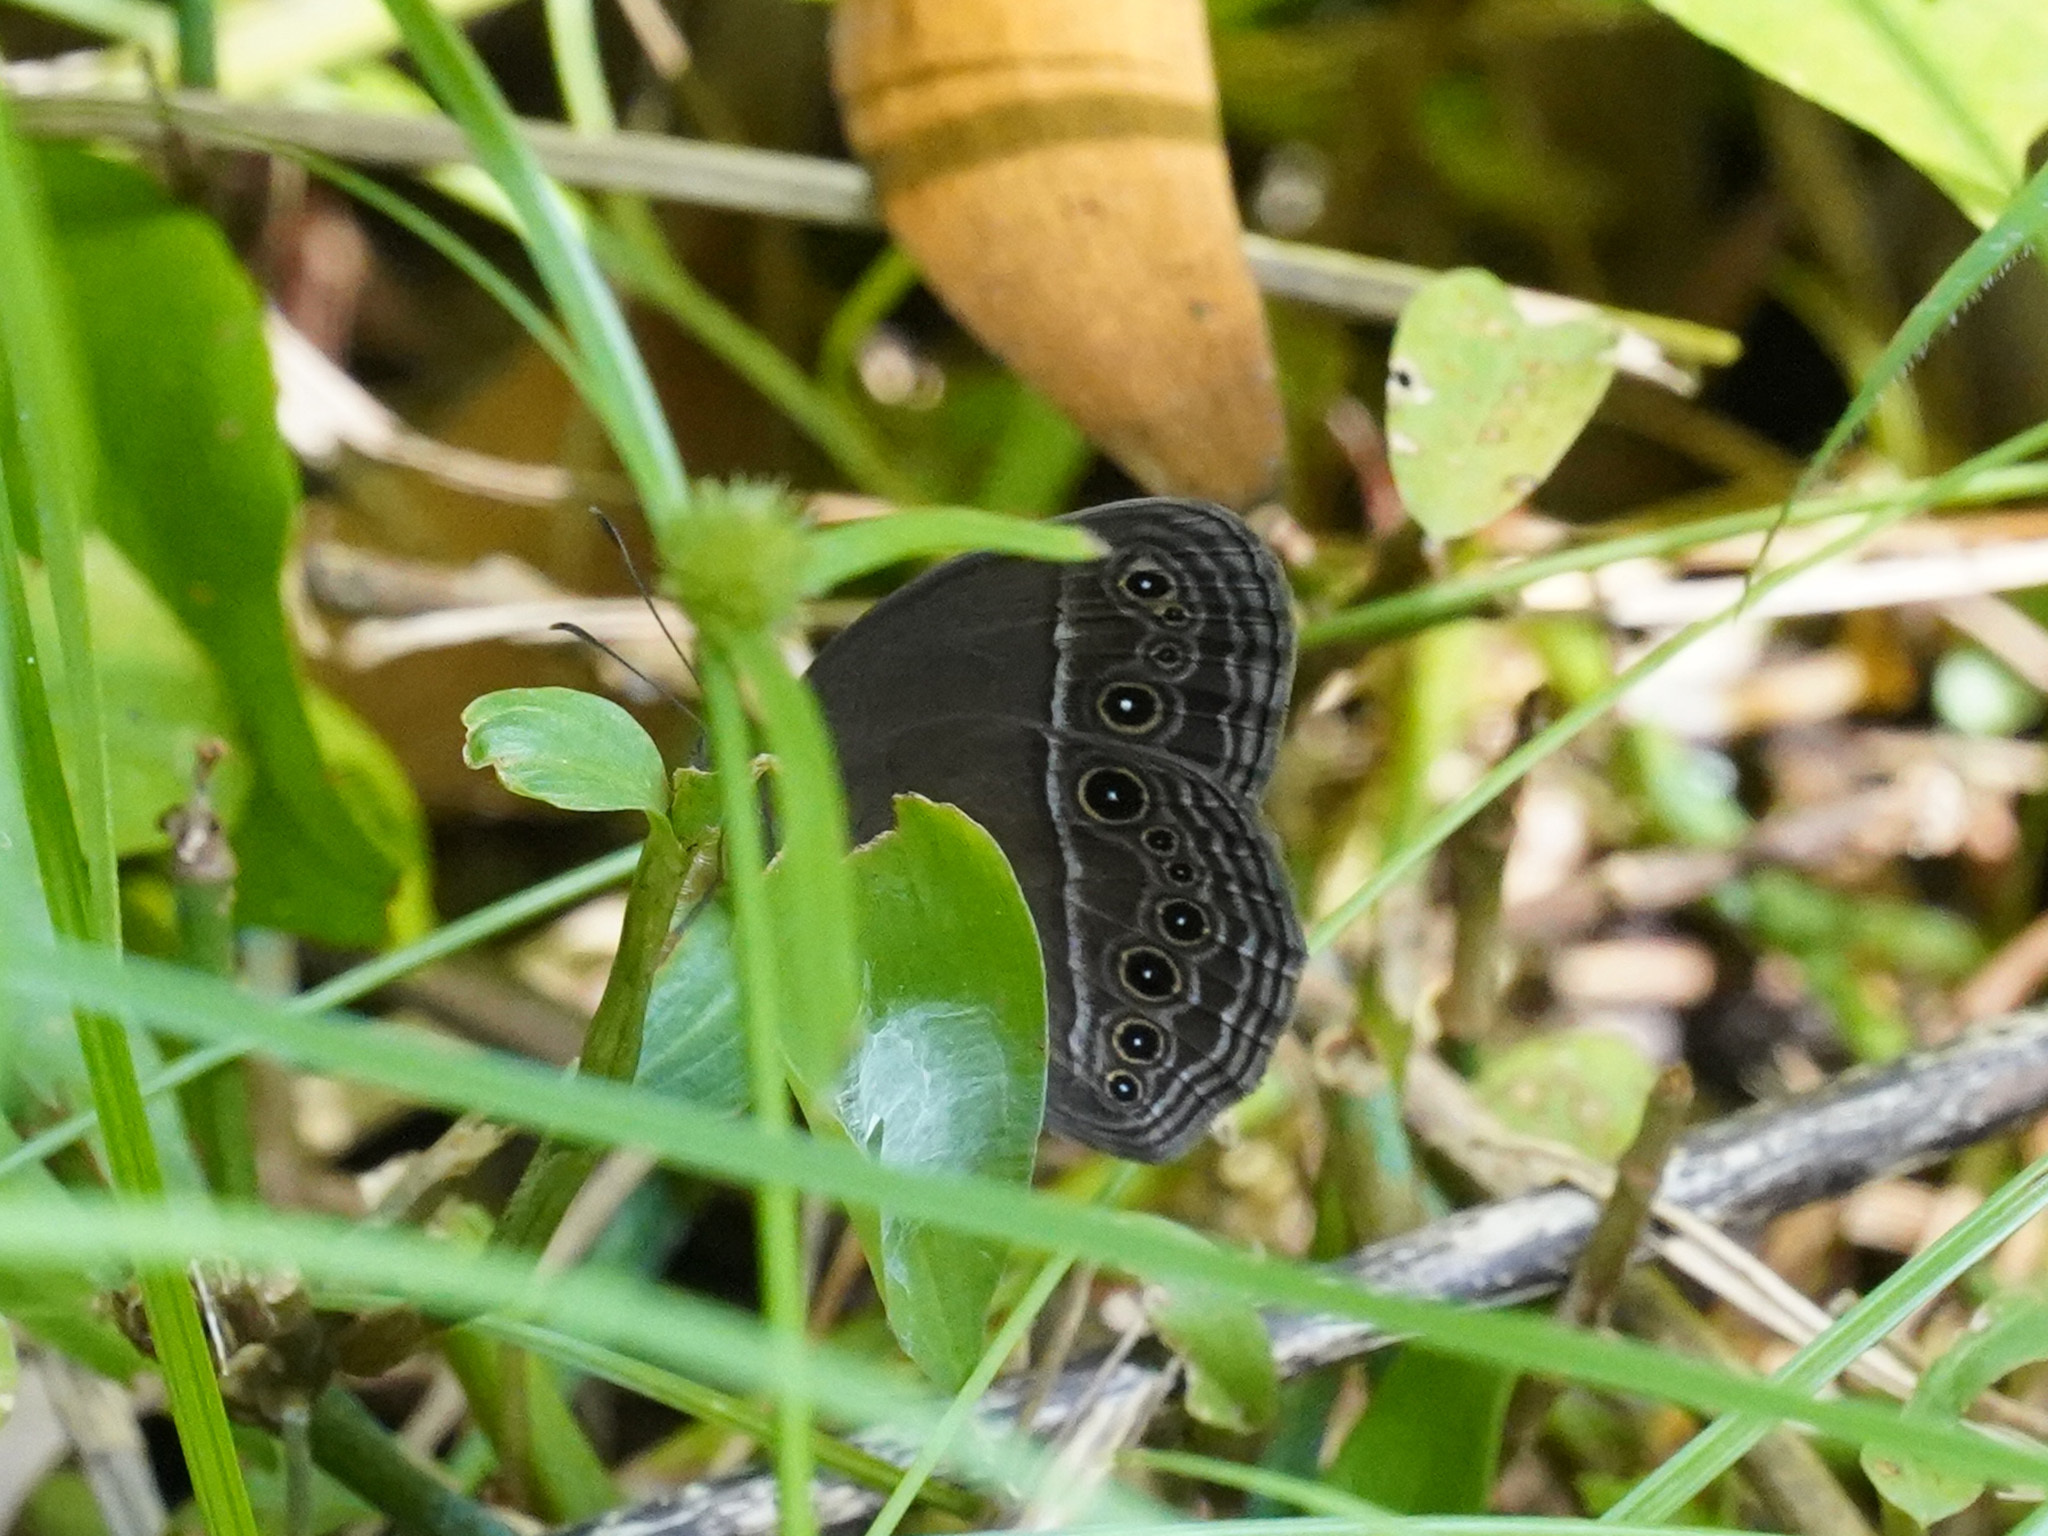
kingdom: Animalia
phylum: Arthropoda
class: Insecta
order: Lepidoptera
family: Nymphalidae
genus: Mycalesis
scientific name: Mycalesis perseus
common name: Dingy bushbrown
